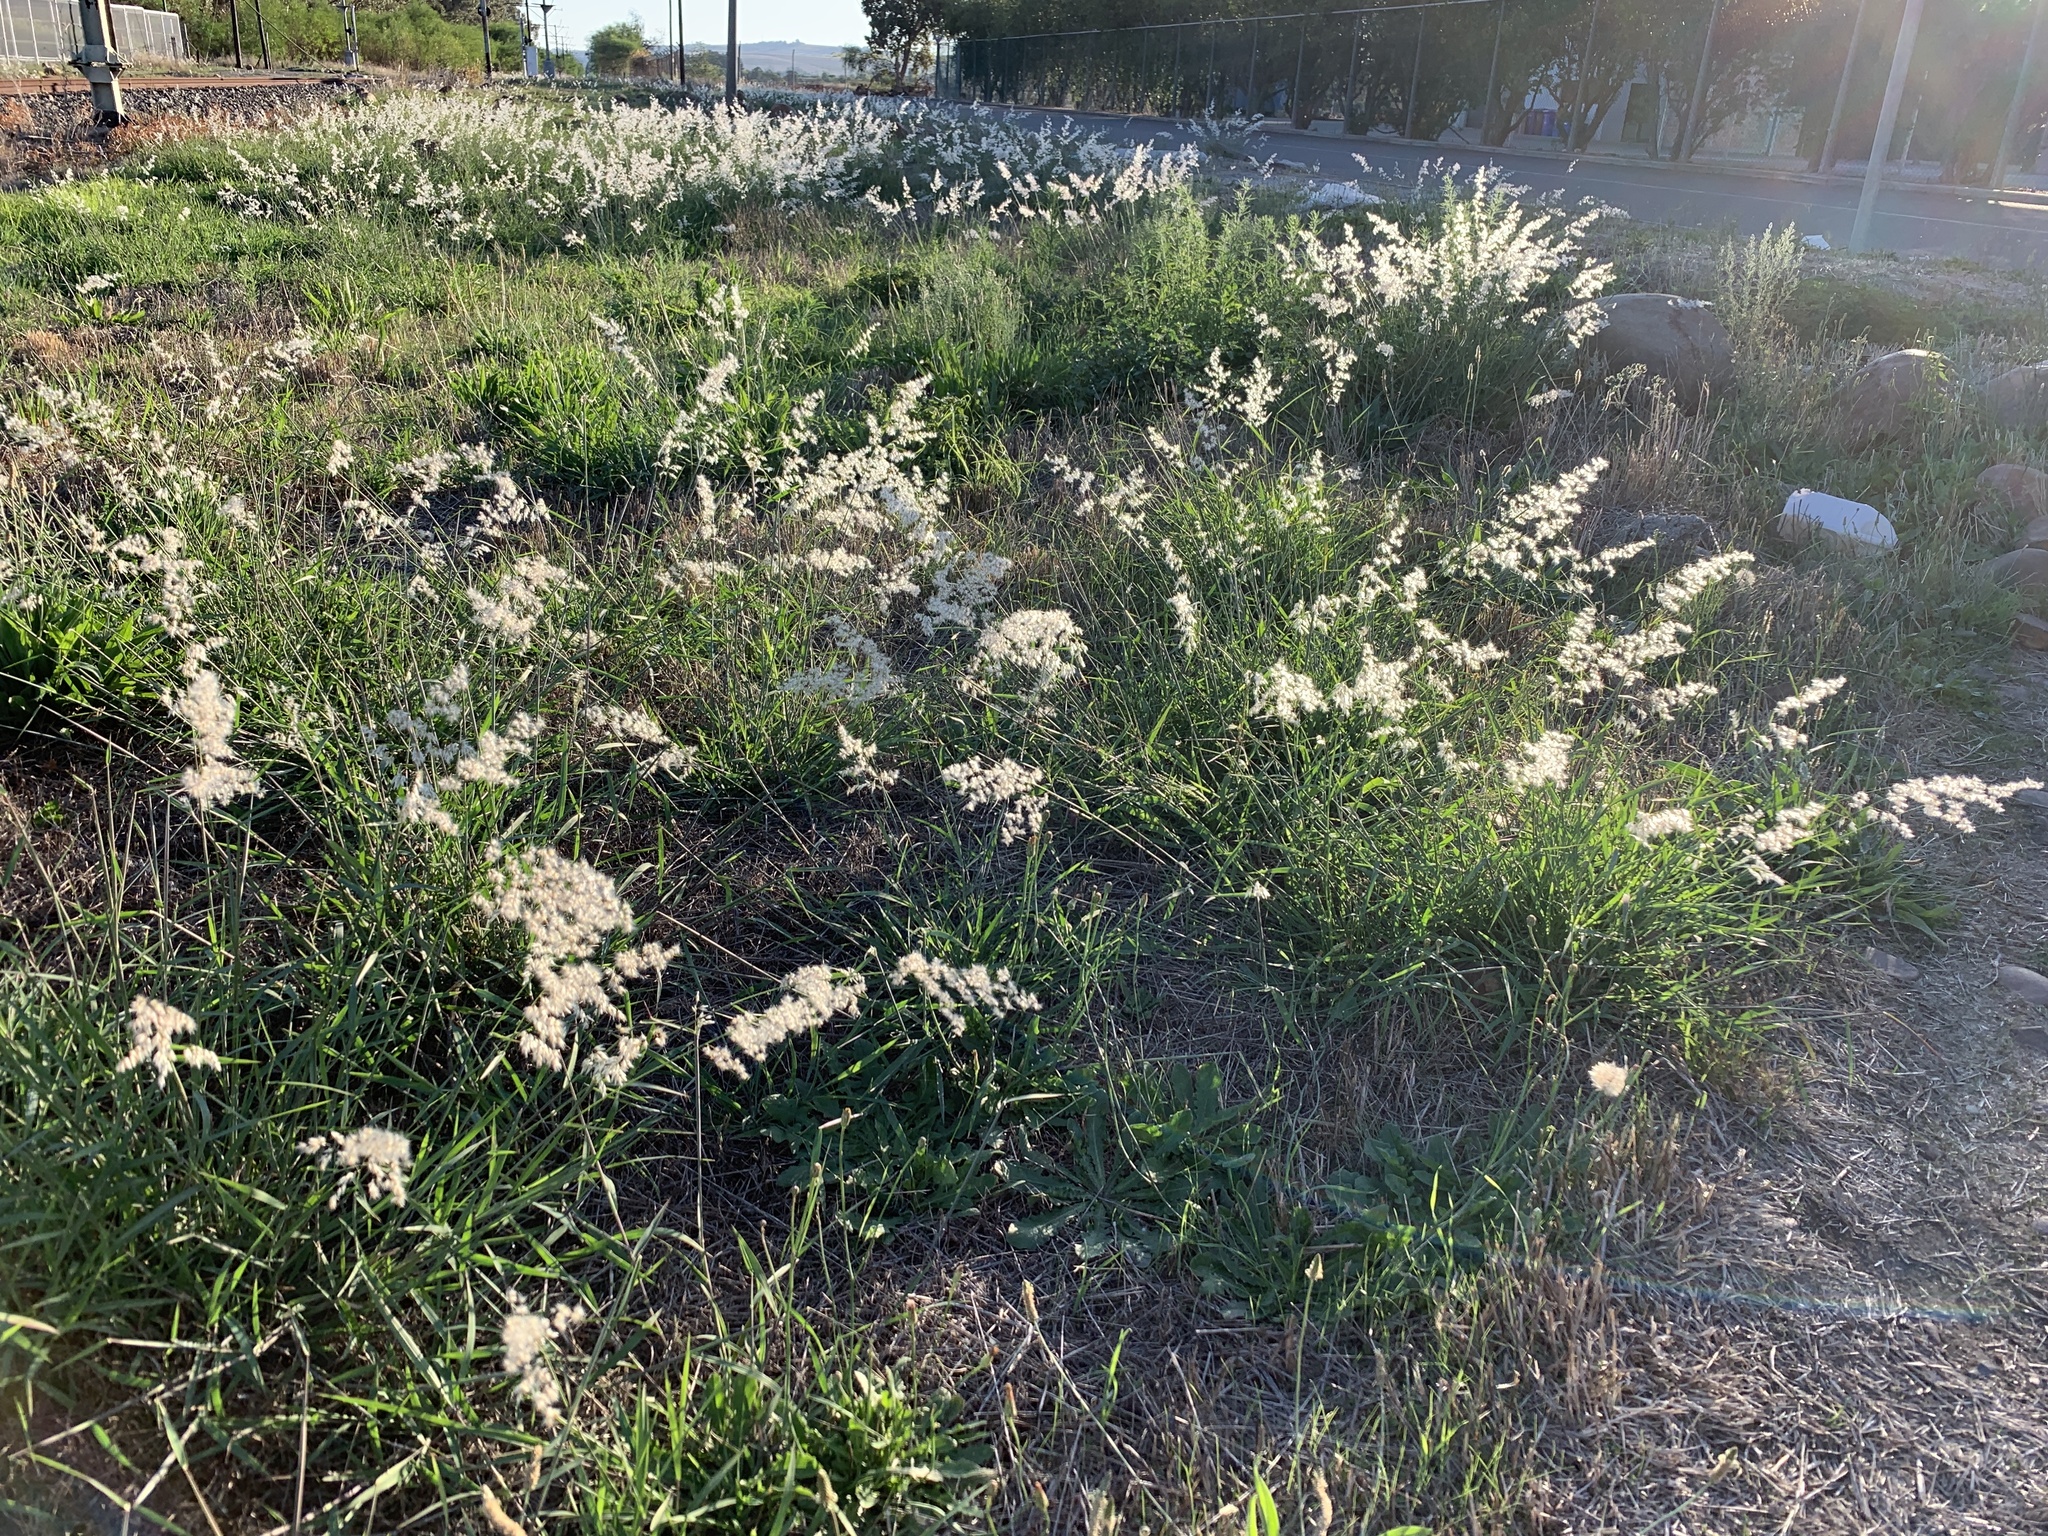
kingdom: Plantae
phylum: Tracheophyta
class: Liliopsida
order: Poales
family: Poaceae
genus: Melinis
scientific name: Melinis repens
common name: Rose natal grass
